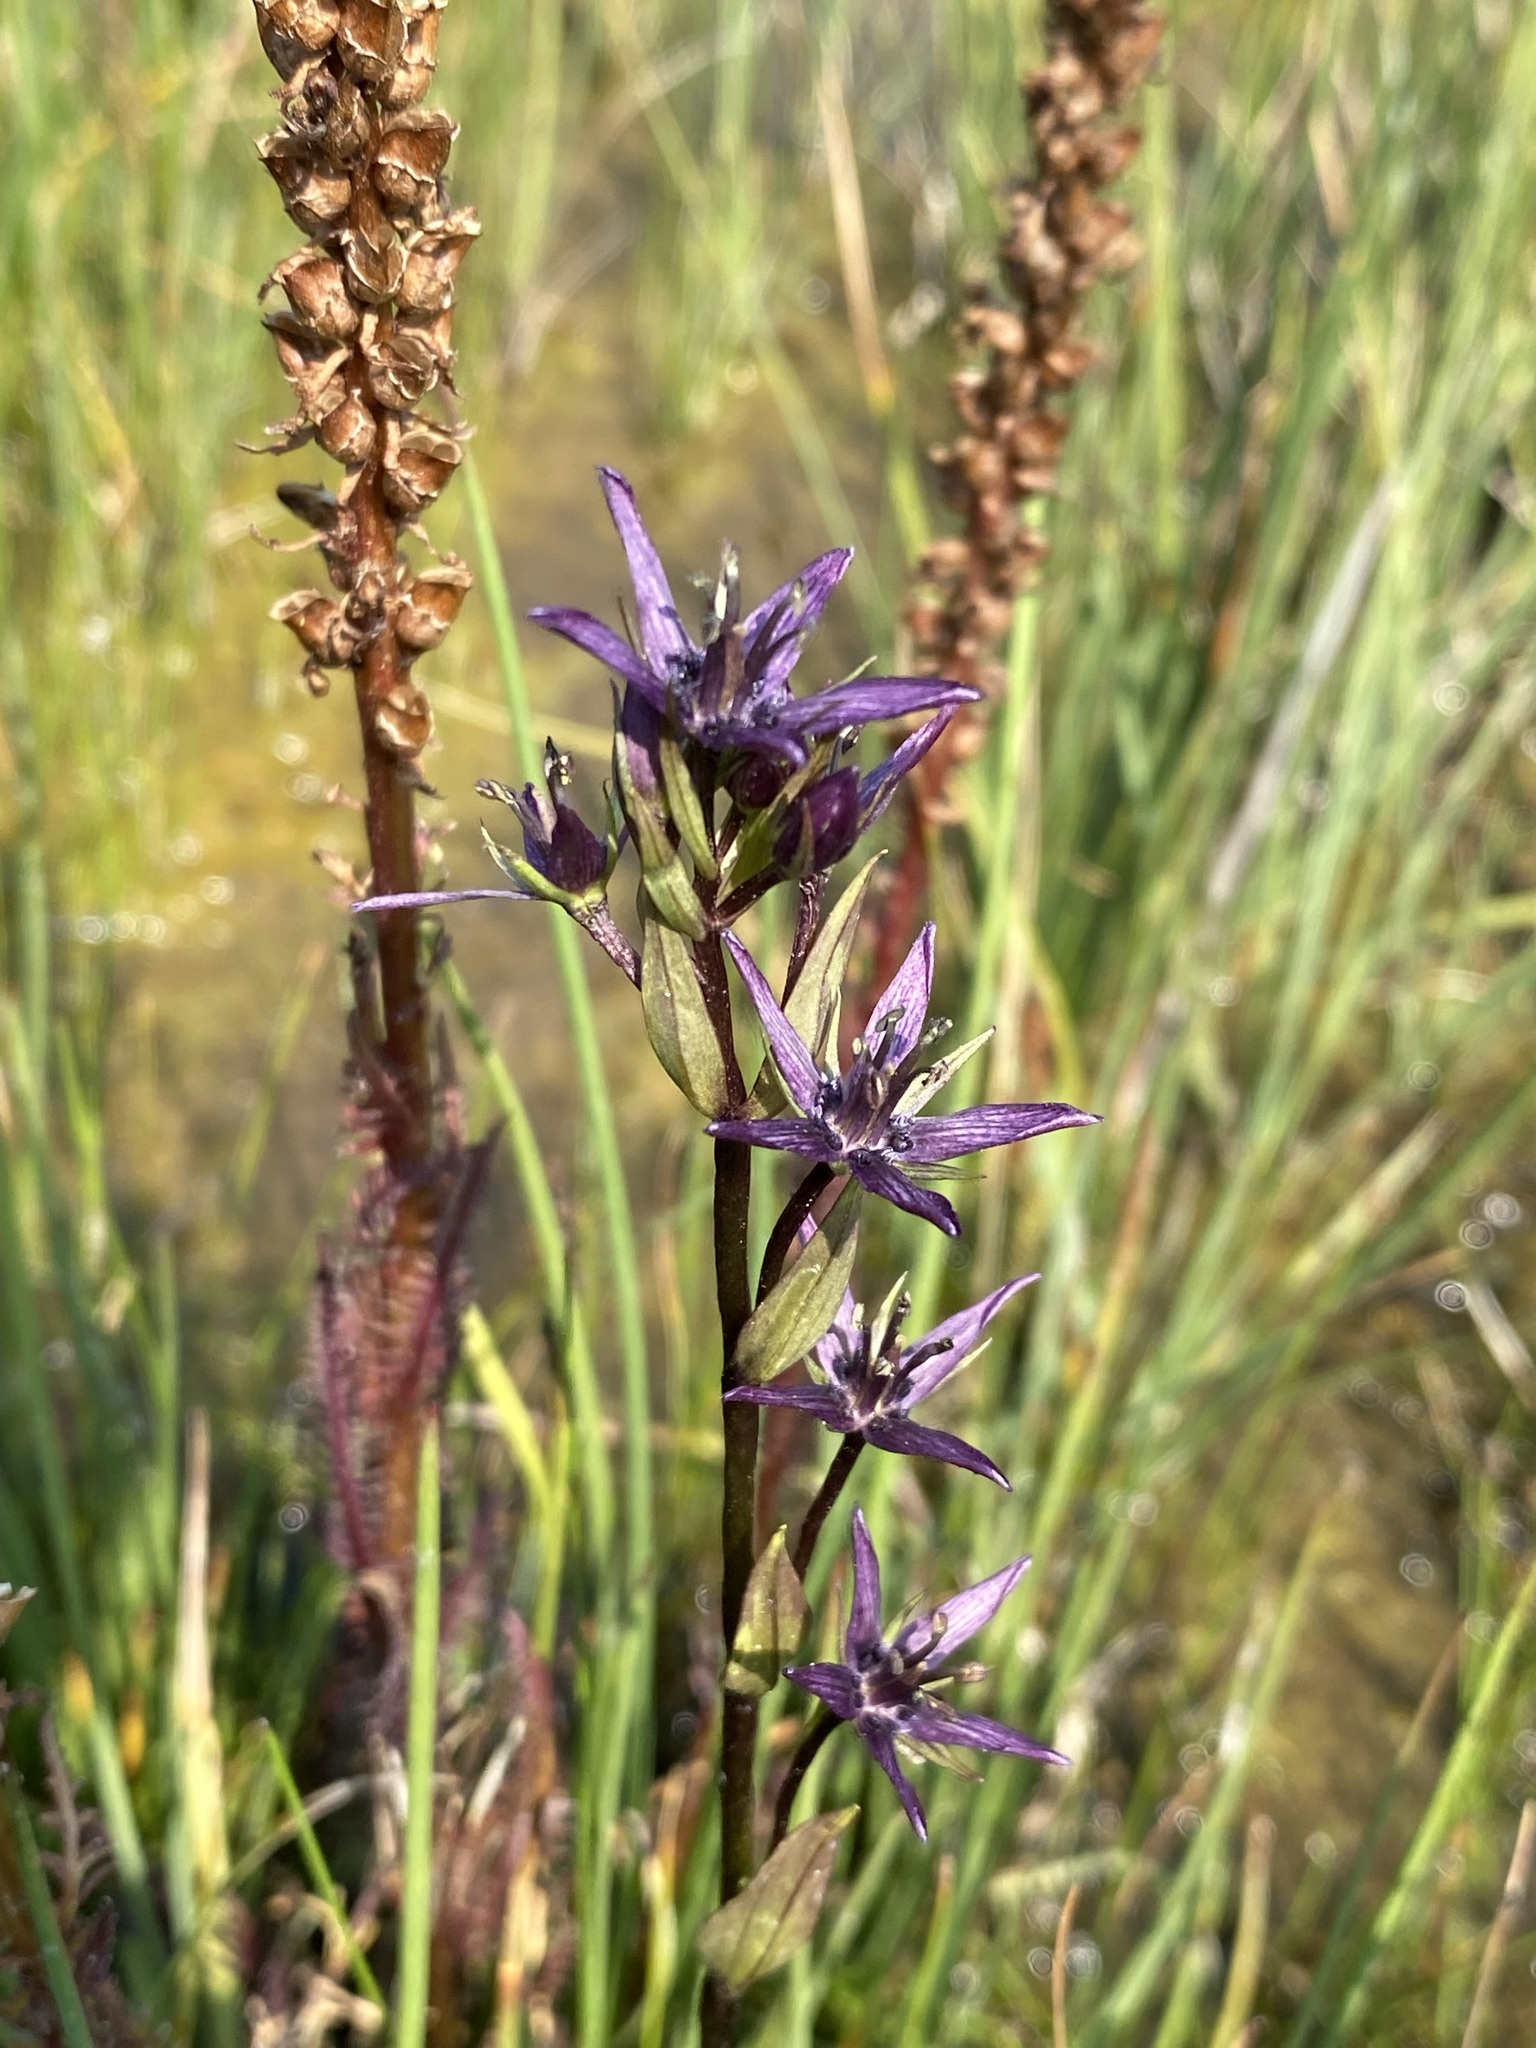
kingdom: Plantae
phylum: Tracheophyta
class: Magnoliopsida
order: Gentianales
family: Gentianaceae
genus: Swertia
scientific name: Swertia perennis
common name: Alpine bog swertia
